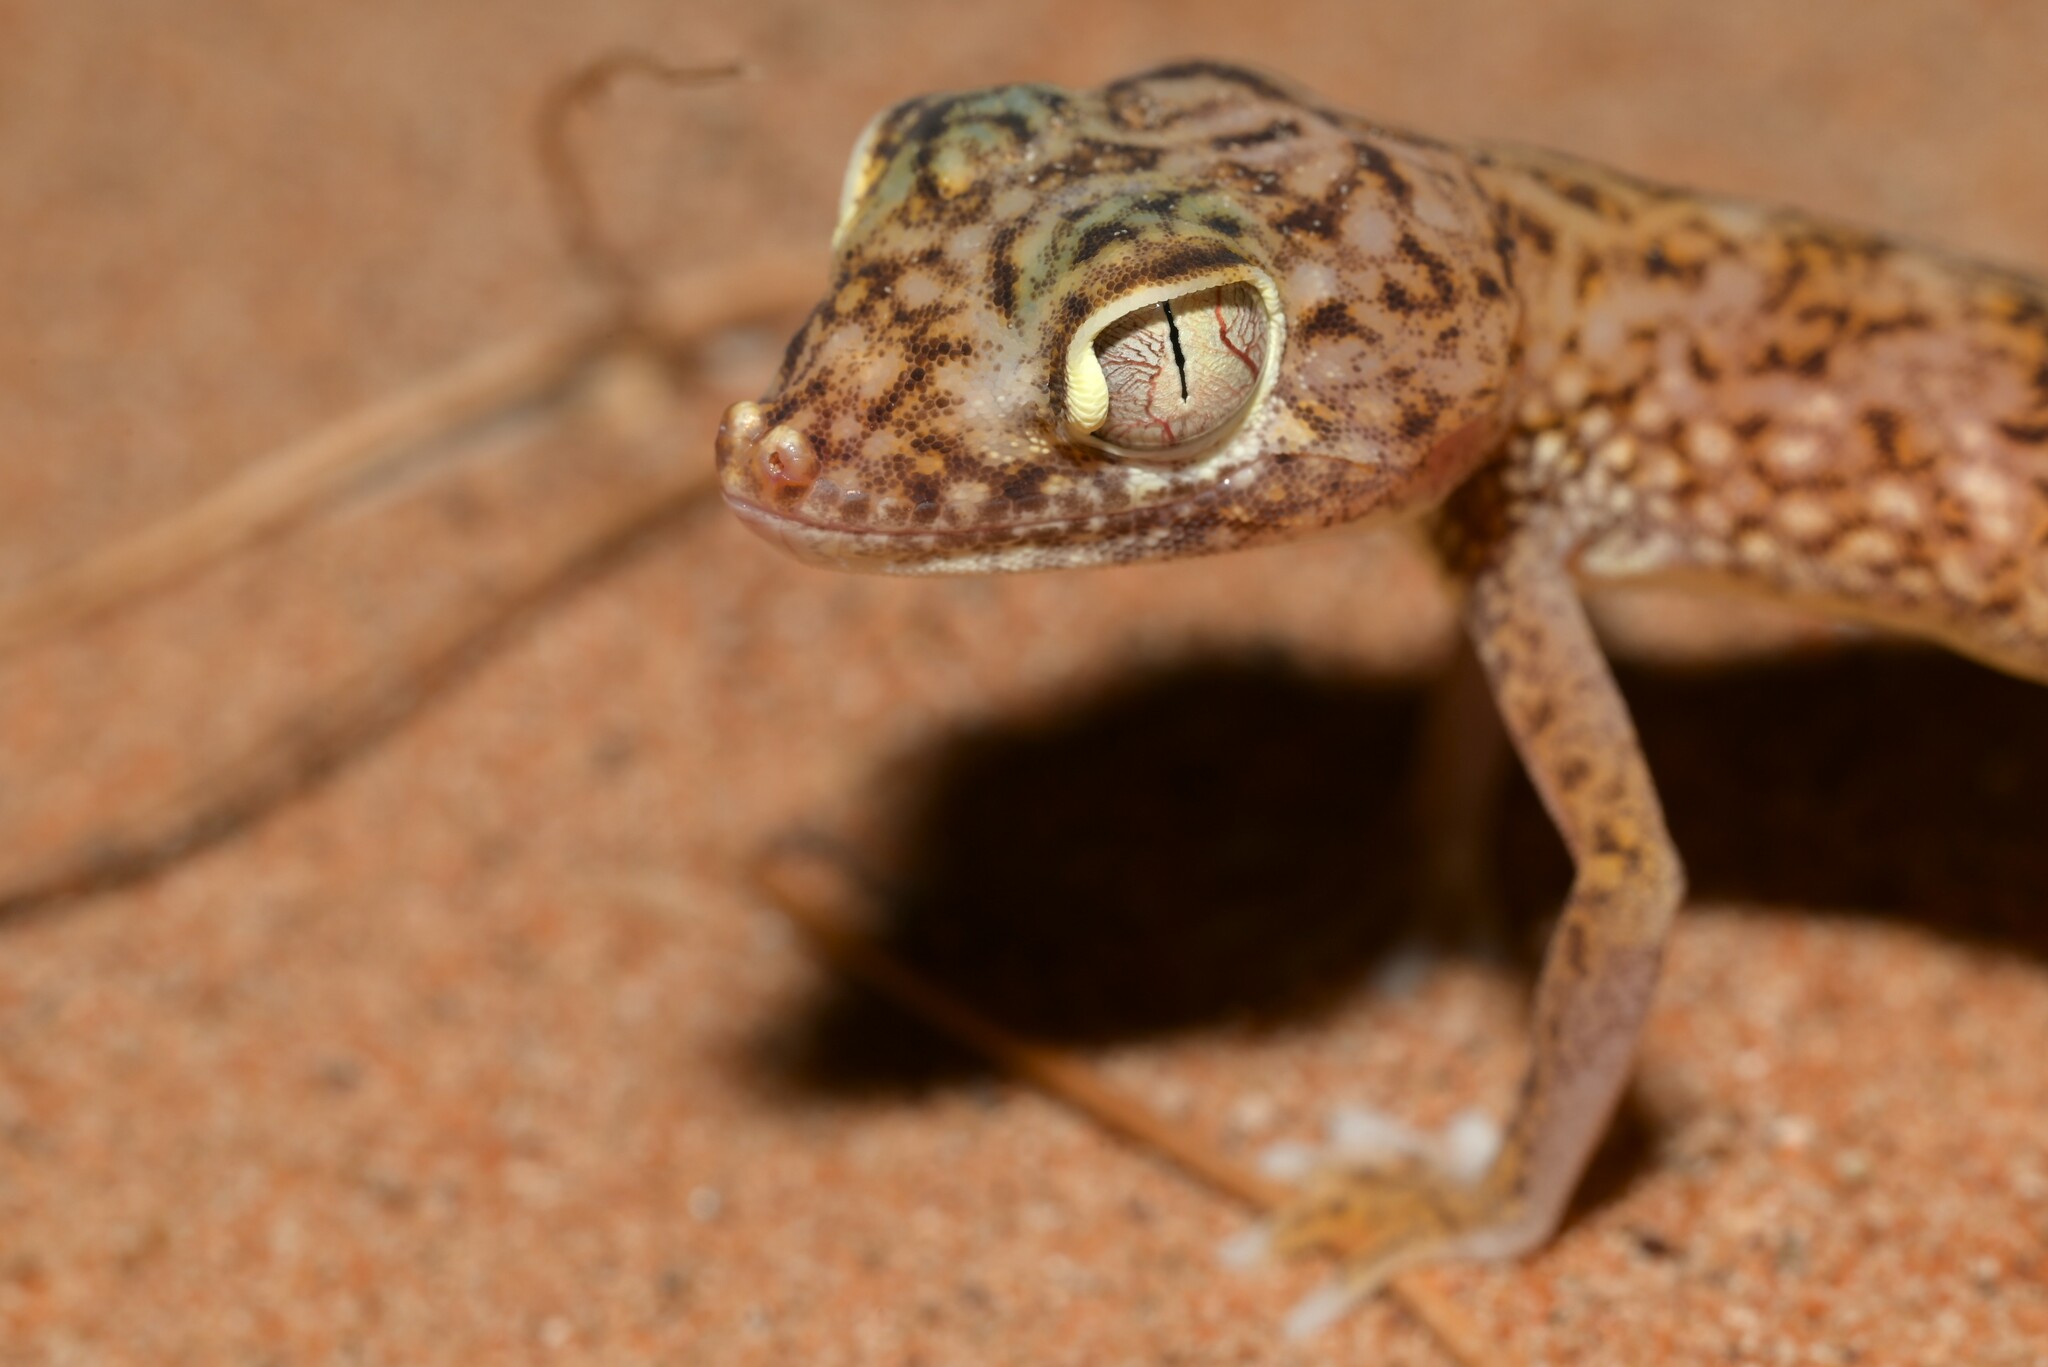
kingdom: Animalia
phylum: Chordata
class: Squamata
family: Gekkonidae
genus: Stenodactylus
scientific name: Stenodactylus doriae
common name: Dune sand gecko
